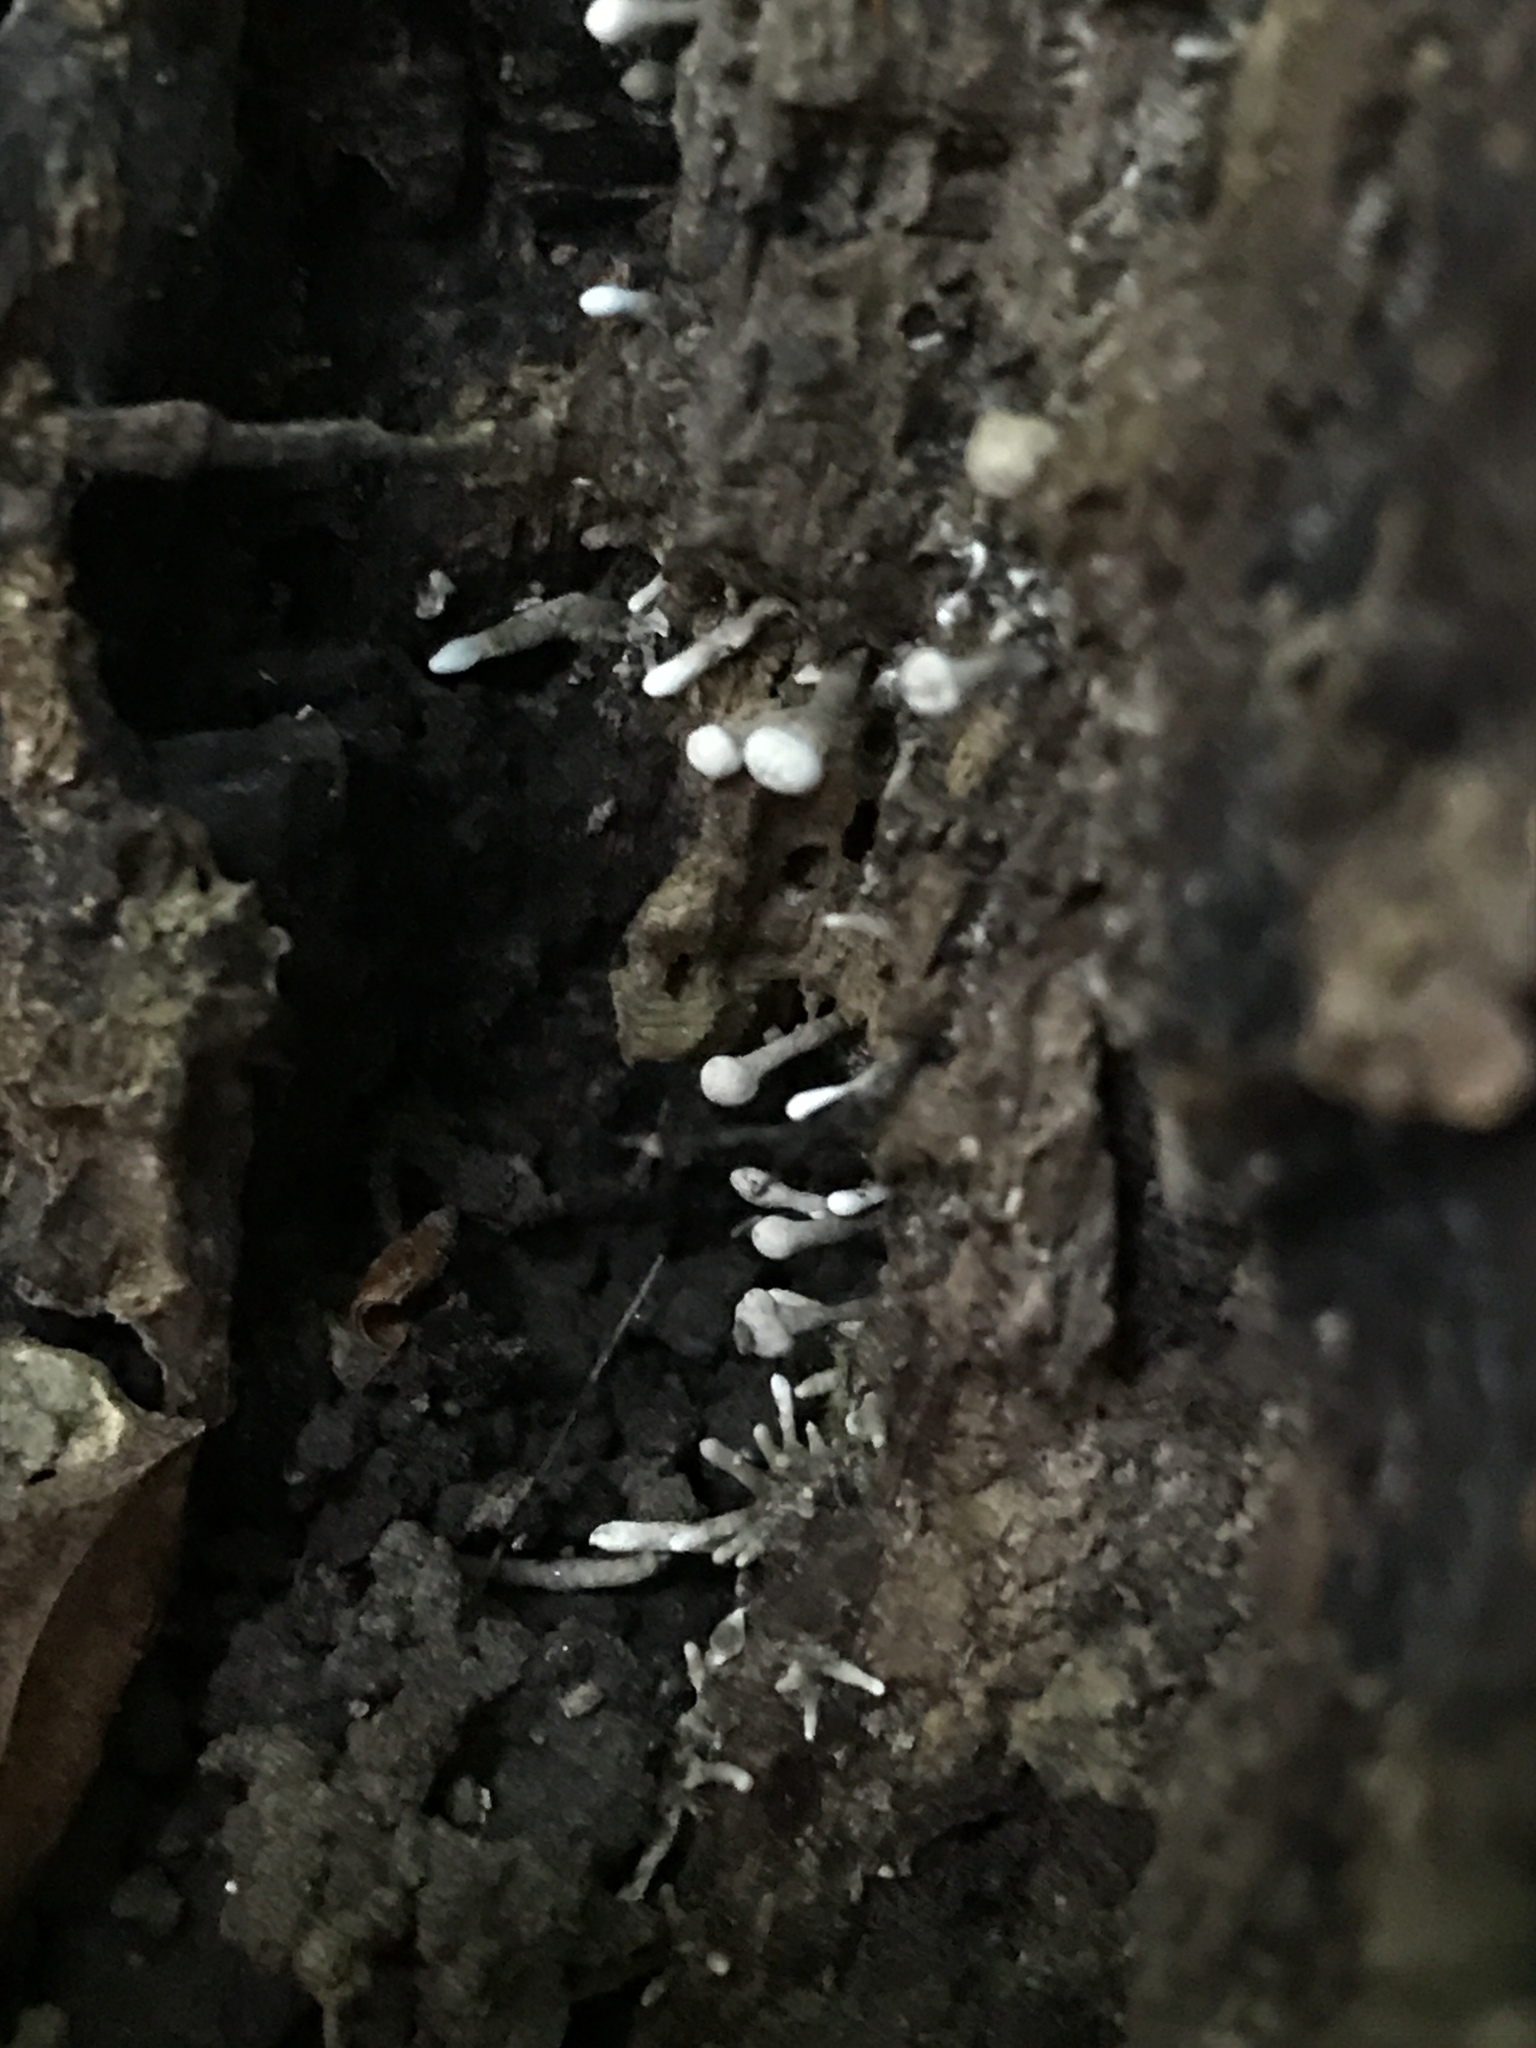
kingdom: Fungi
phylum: Basidiomycota
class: Atractiellomycetes
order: Atractiellales
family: Phleogenaceae
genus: Phleogena
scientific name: Phleogena faginea
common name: Fenugreek stalkball
